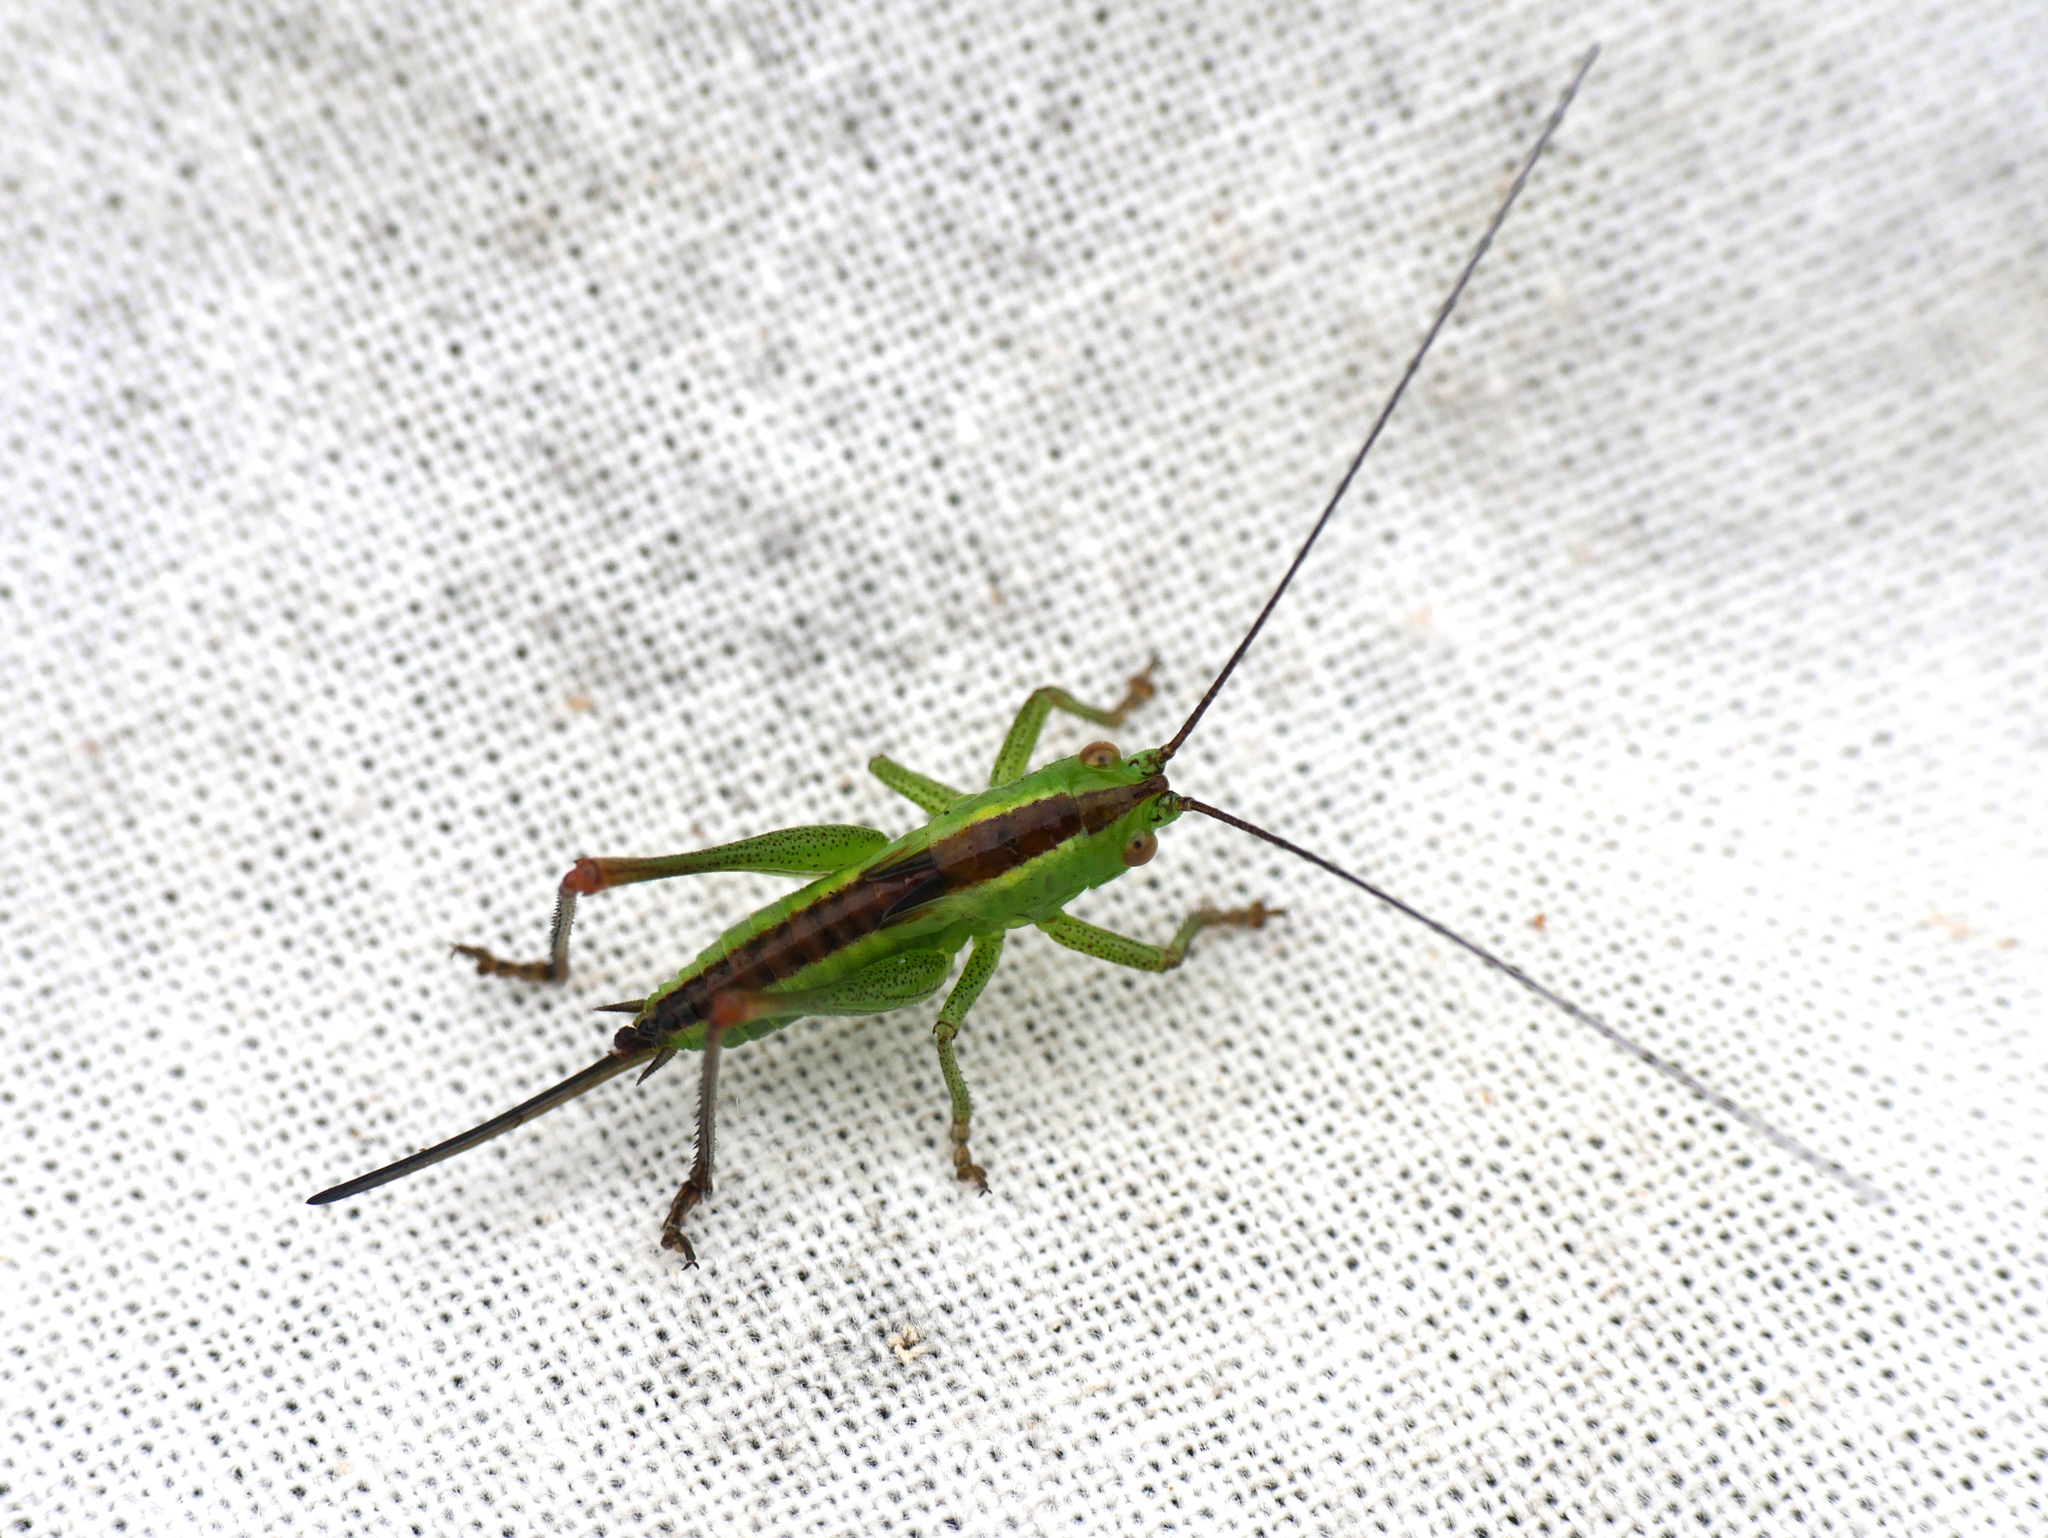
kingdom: Animalia
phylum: Arthropoda
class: Insecta
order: Orthoptera
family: Tettigoniidae
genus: Conocephalus
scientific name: Conocephalus dorsalis
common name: Short-winged conehead
